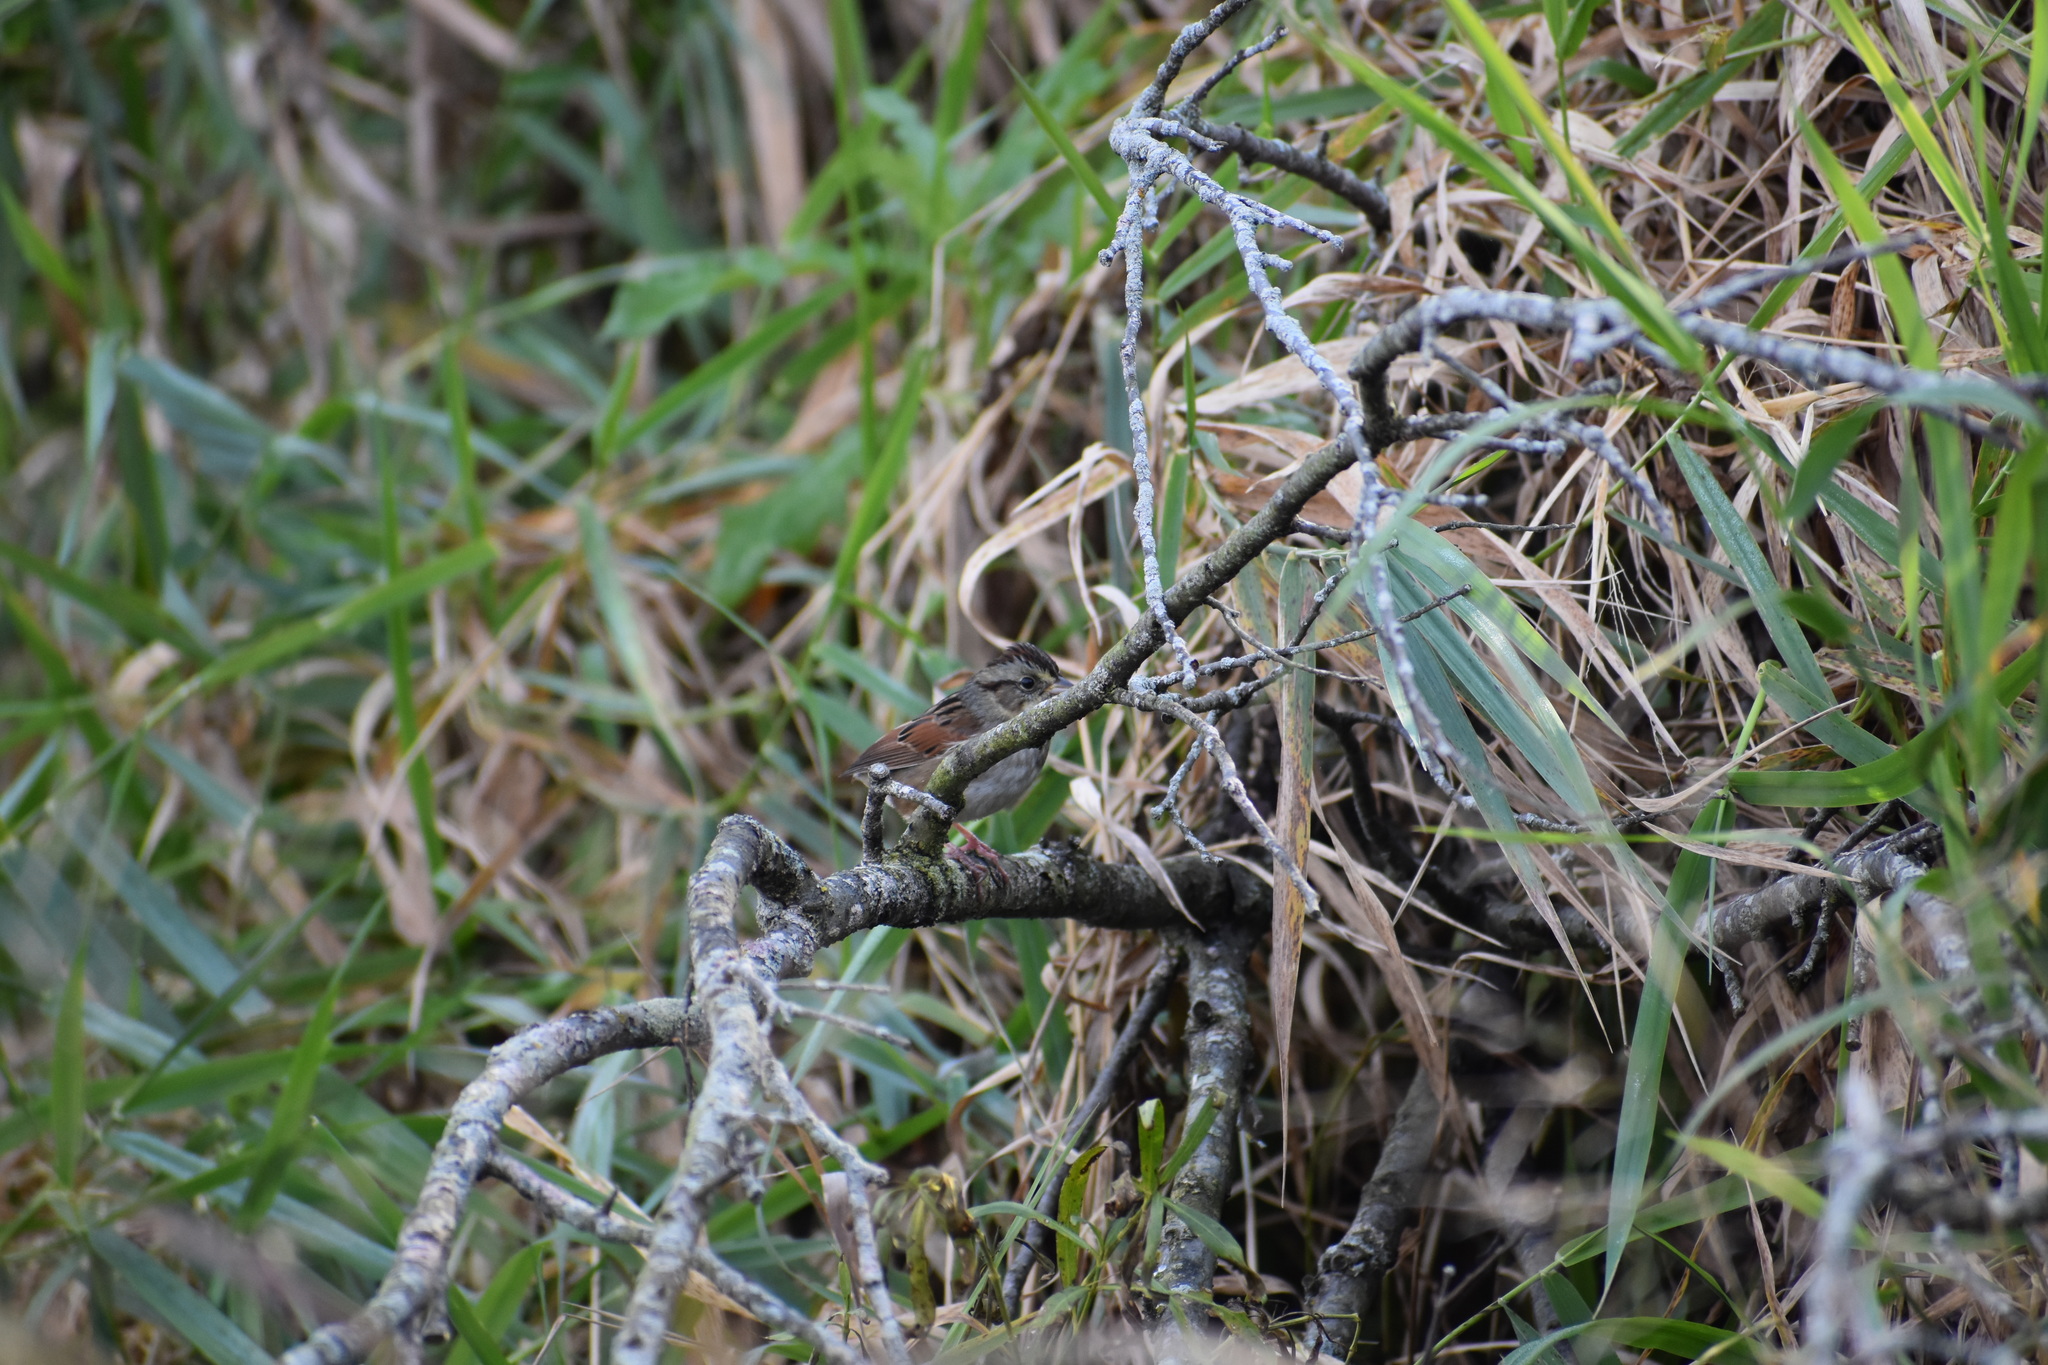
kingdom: Animalia
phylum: Chordata
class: Aves
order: Passeriformes
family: Passerellidae
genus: Melospiza
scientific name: Melospiza georgiana
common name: Swamp sparrow
